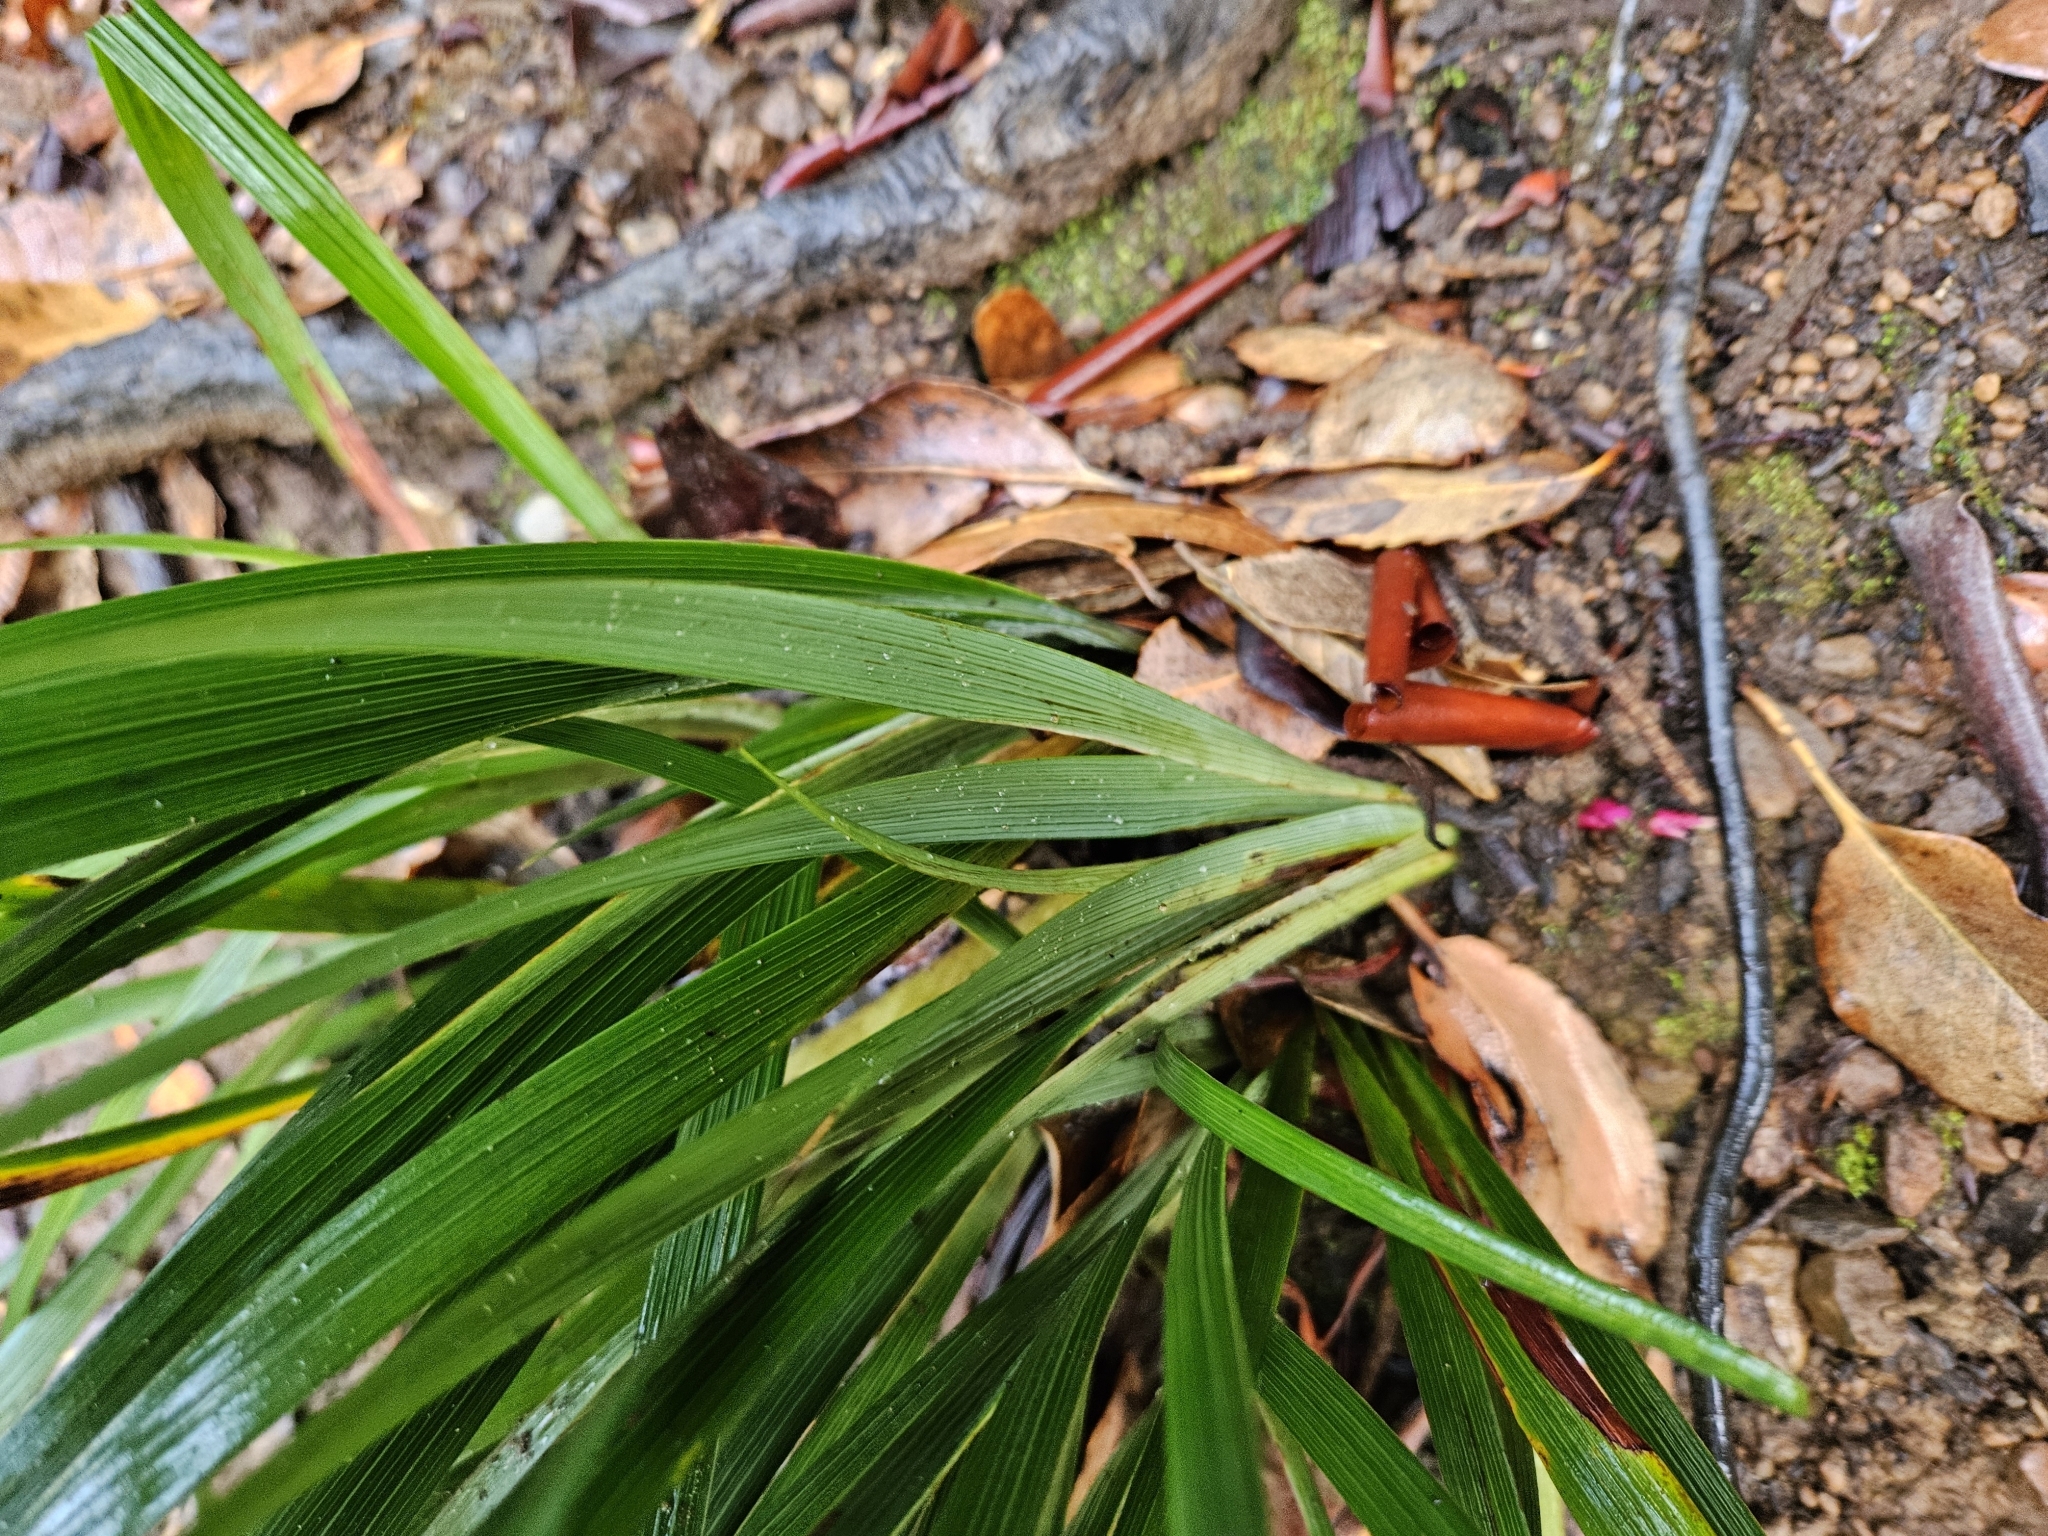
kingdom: Plantae
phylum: Tracheophyta
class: Liliopsida
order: Asparagales
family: Iridaceae
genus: Iris
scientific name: Iris douglasiana
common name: Marin iris
